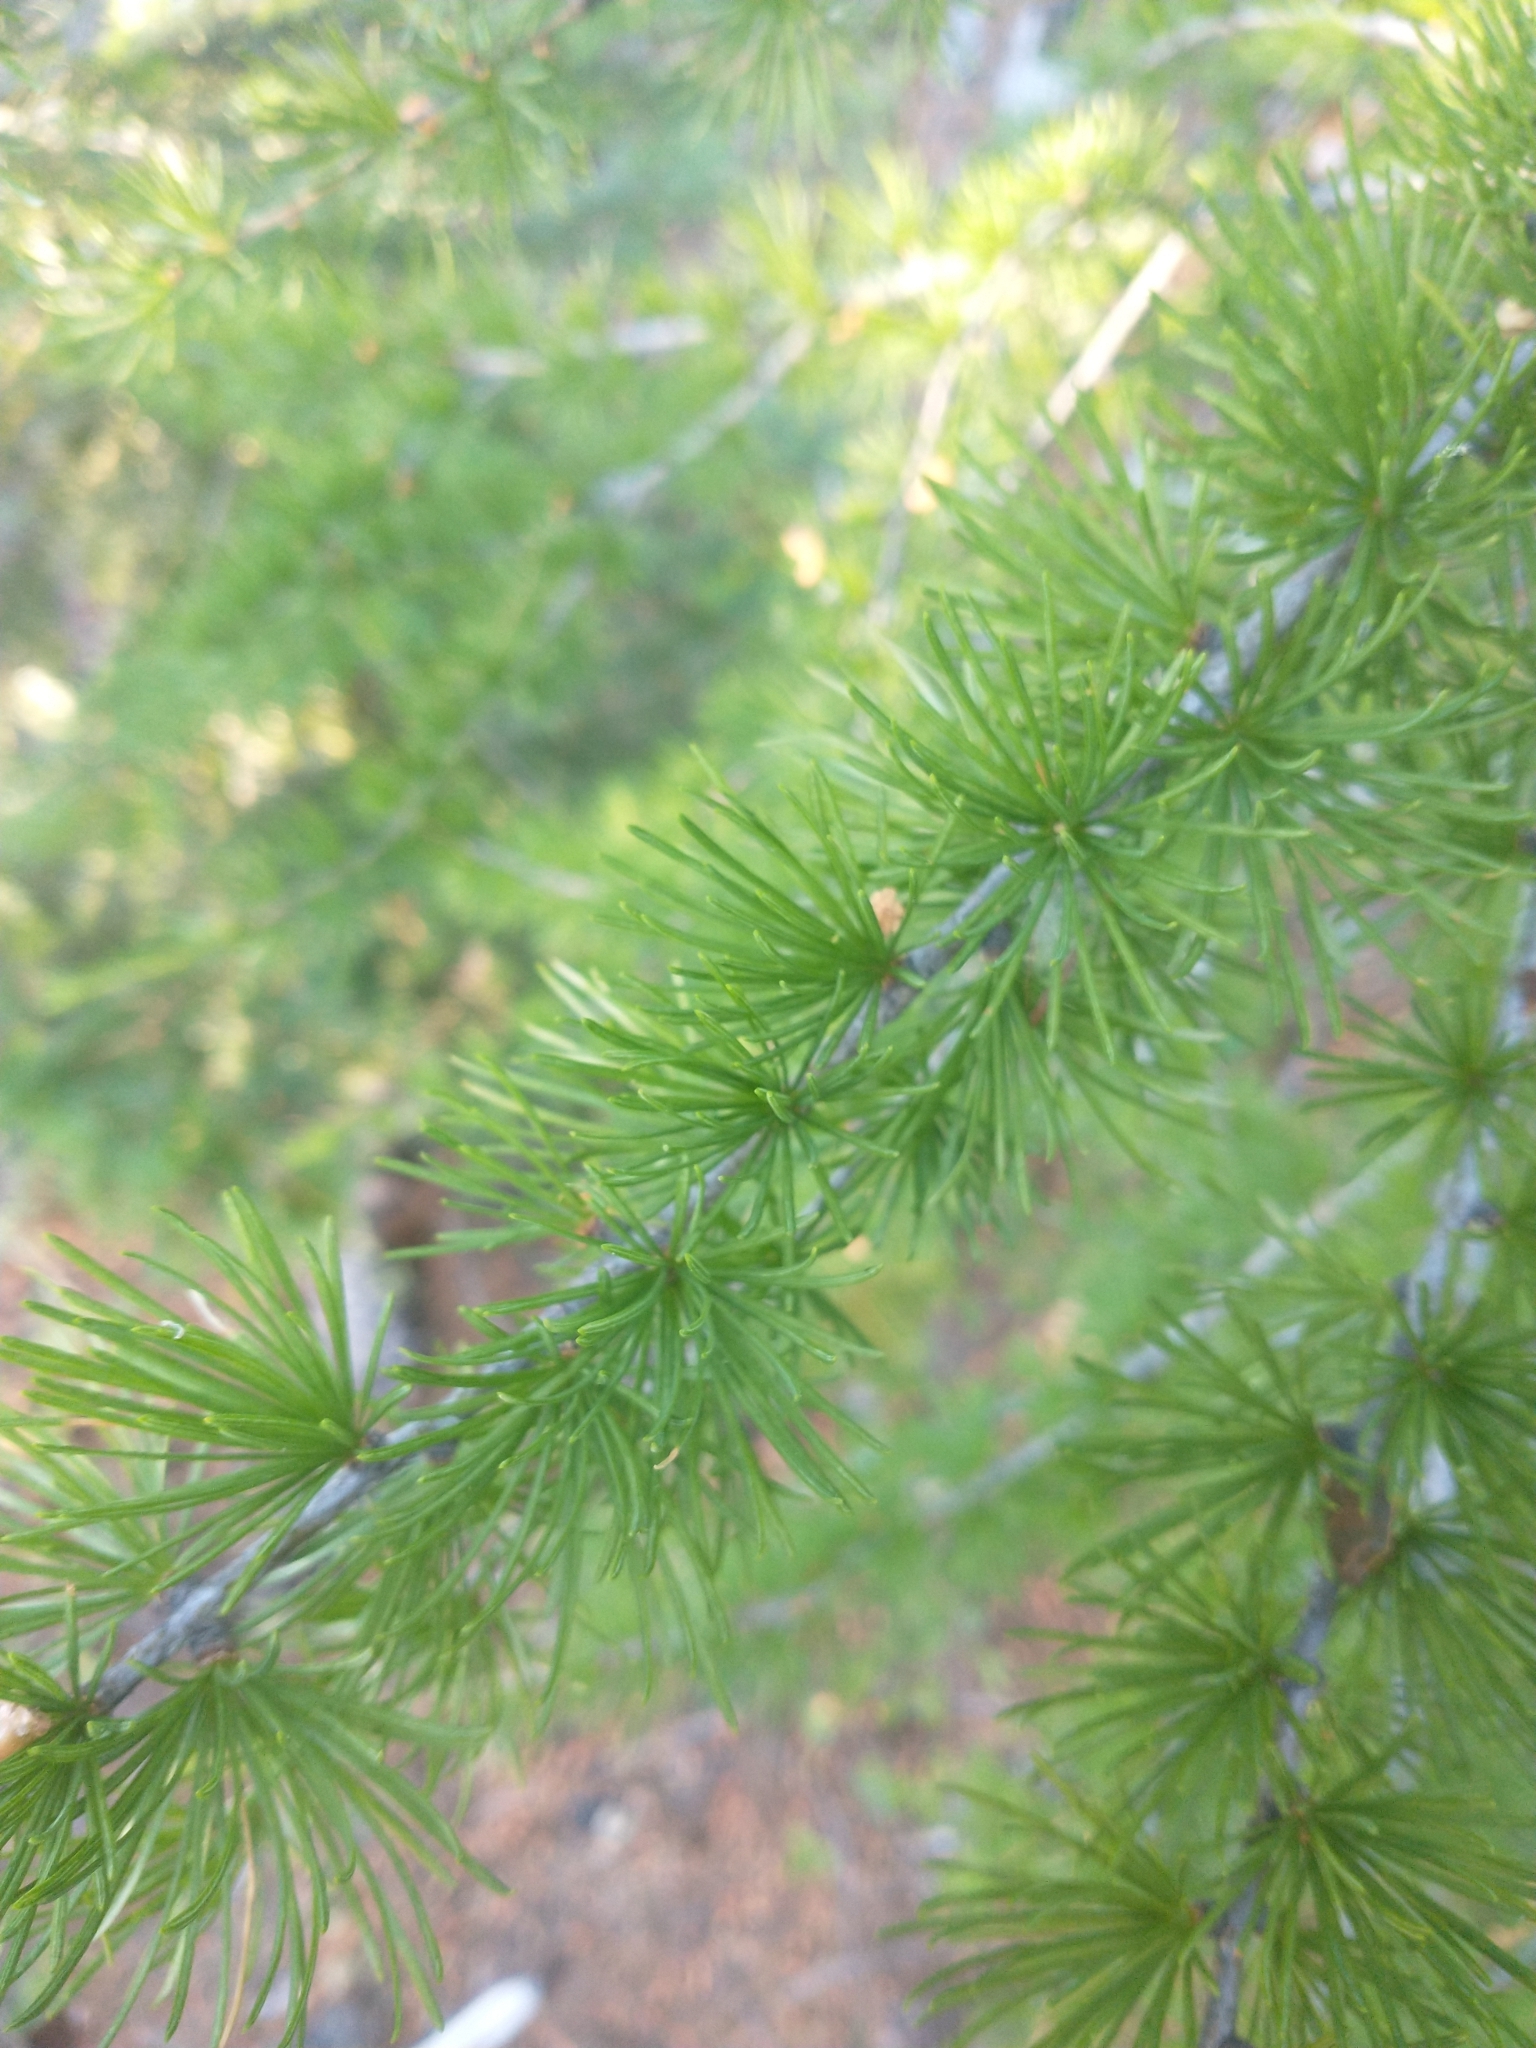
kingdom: Plantae
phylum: Tracheophyta
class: Pinopsida
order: Pinales
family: Pinaceae
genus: Larix
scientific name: Larix occidentalis
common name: Western larch
